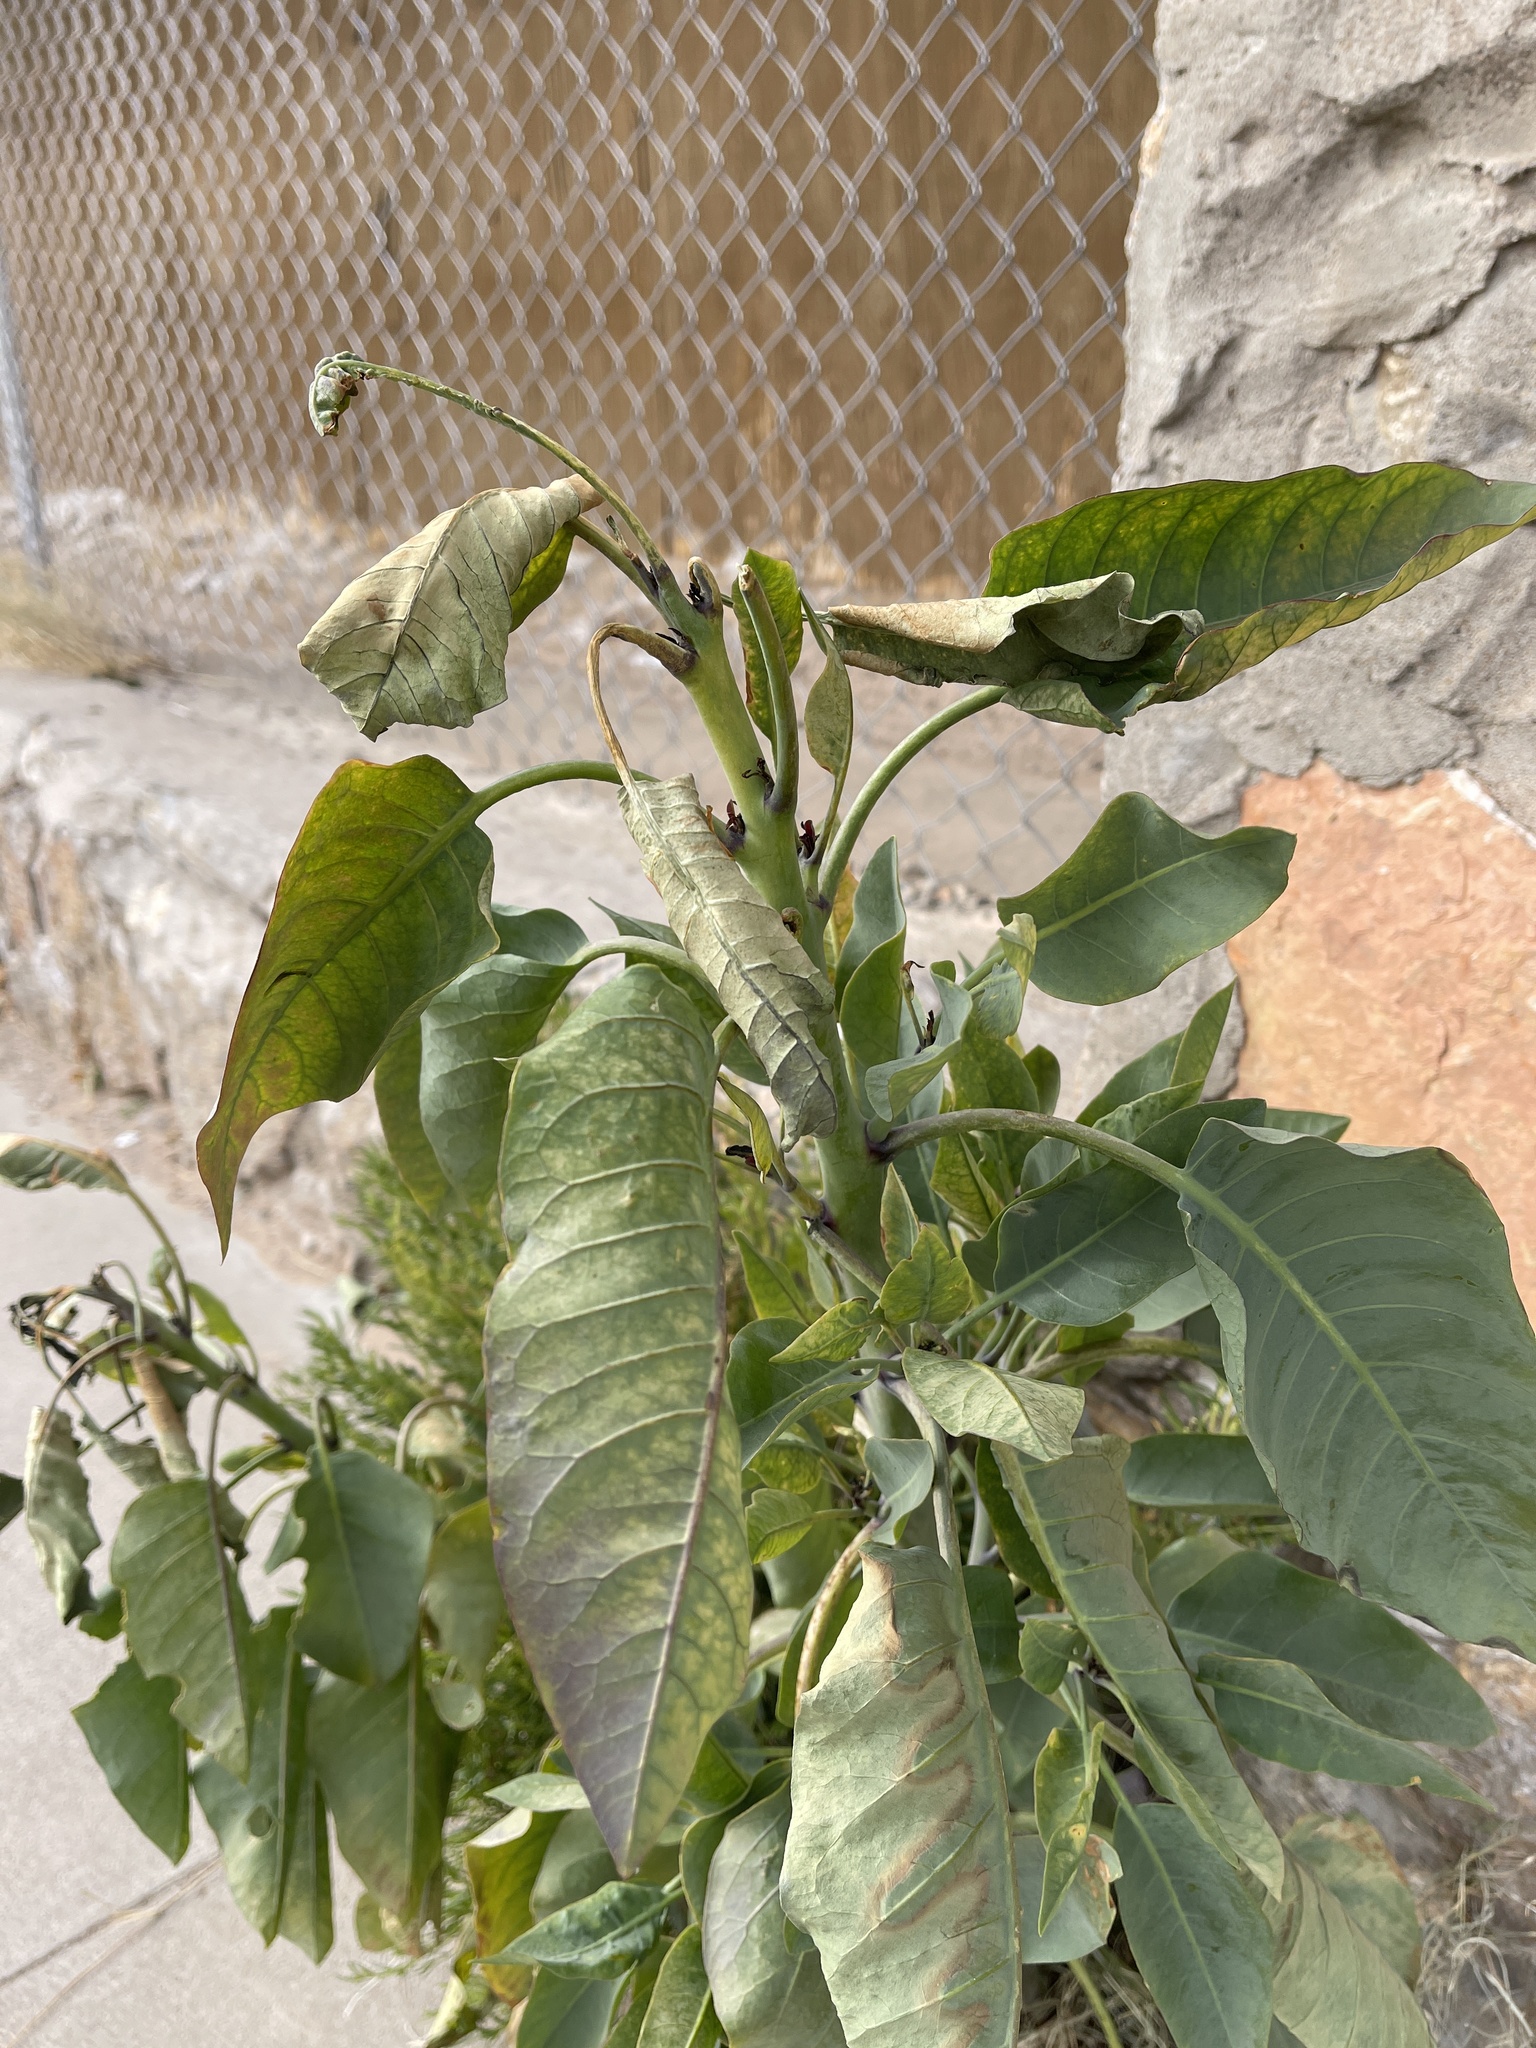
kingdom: Plantae
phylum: Tracheophyta
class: Magnoliopsida
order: Solanales
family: Solanaceae
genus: Nicotiana
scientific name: Nicotiana glauca
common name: Tree tobacco
